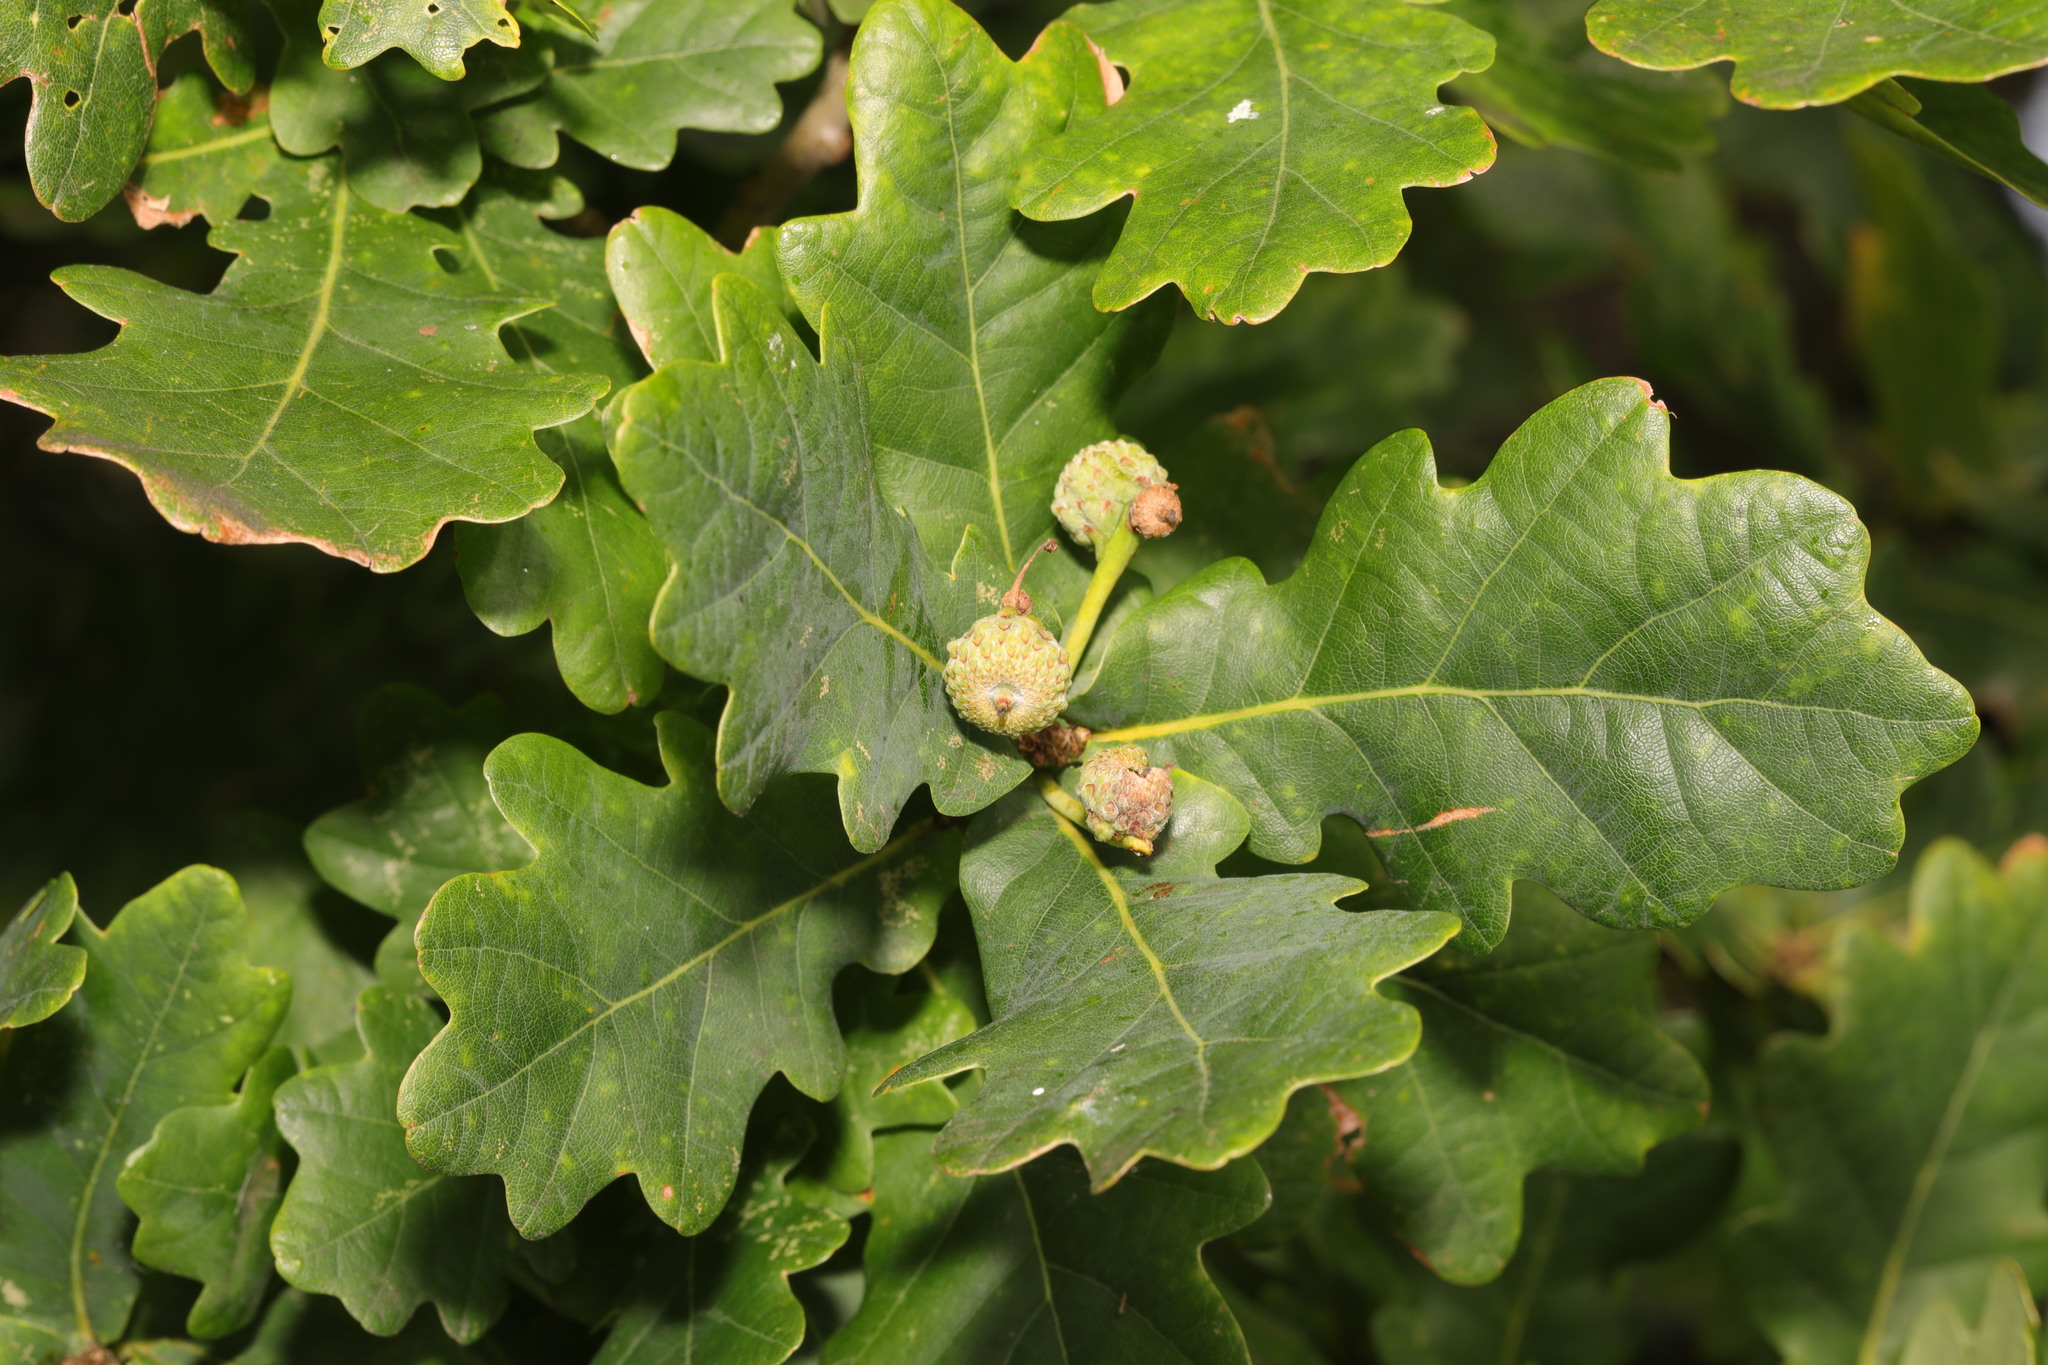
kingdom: Plantae
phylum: Tracheophyta
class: Magnoliopsida
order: Fagales
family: Fagaceae
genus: Quercus
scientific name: Quercus robur
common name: Pedunculate oak
